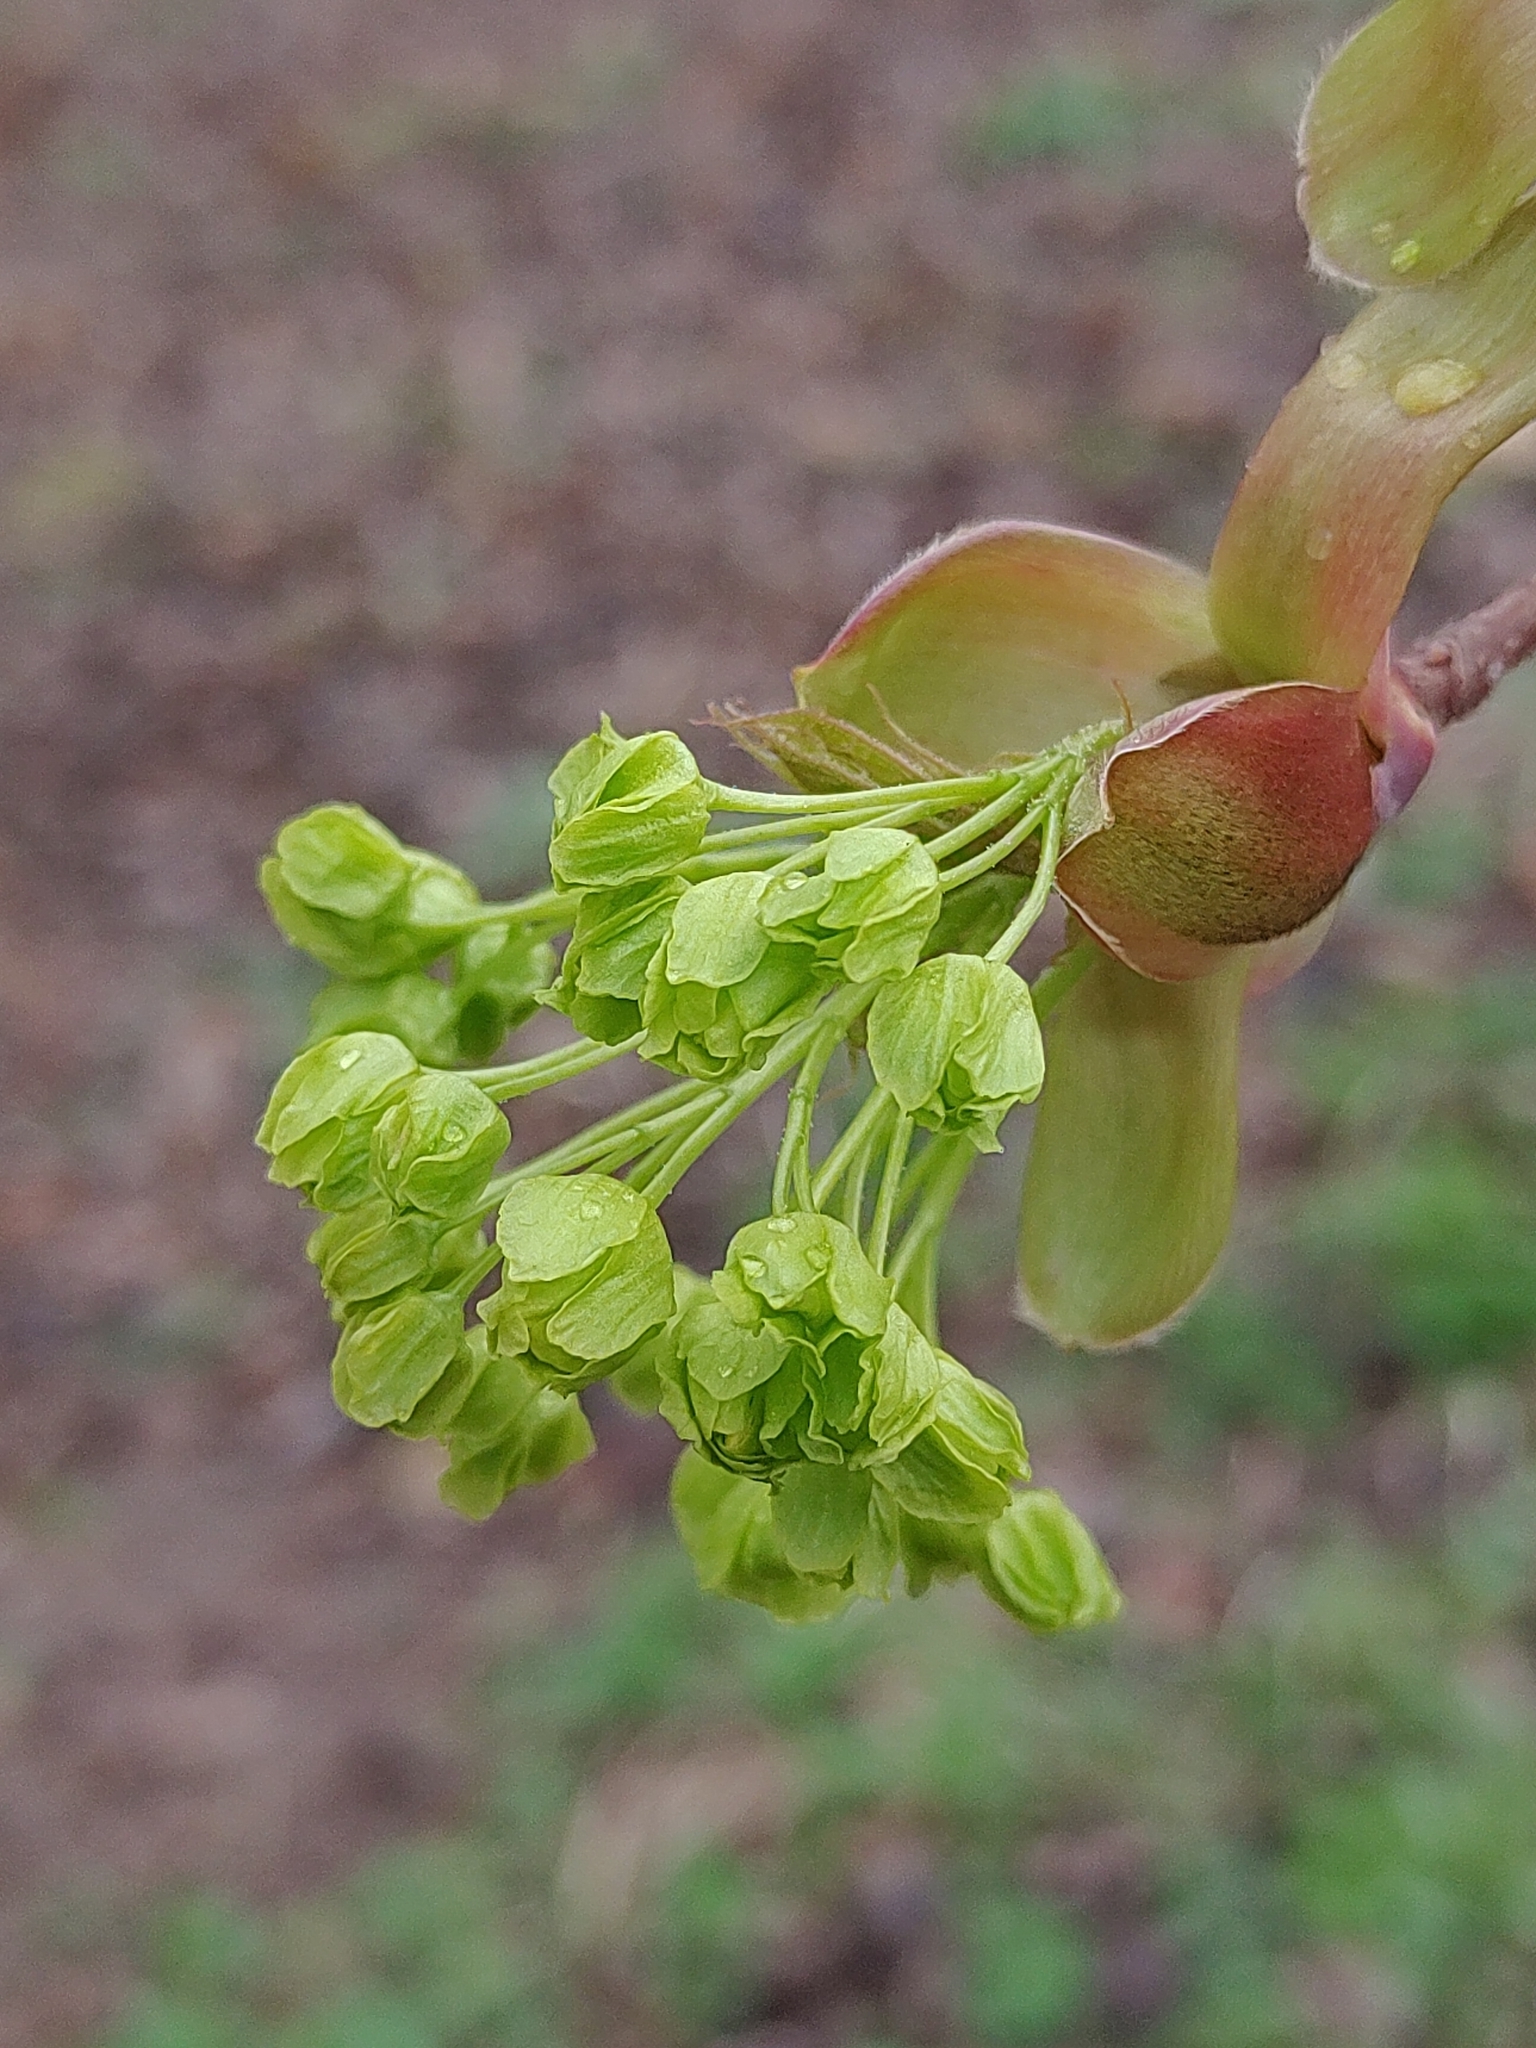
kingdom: Plantae
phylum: Tracheophyta
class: Magnoliopsida
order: Sapindales
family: Sapindaceae
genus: Acer
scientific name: Acer platanoides
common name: Norway maple
